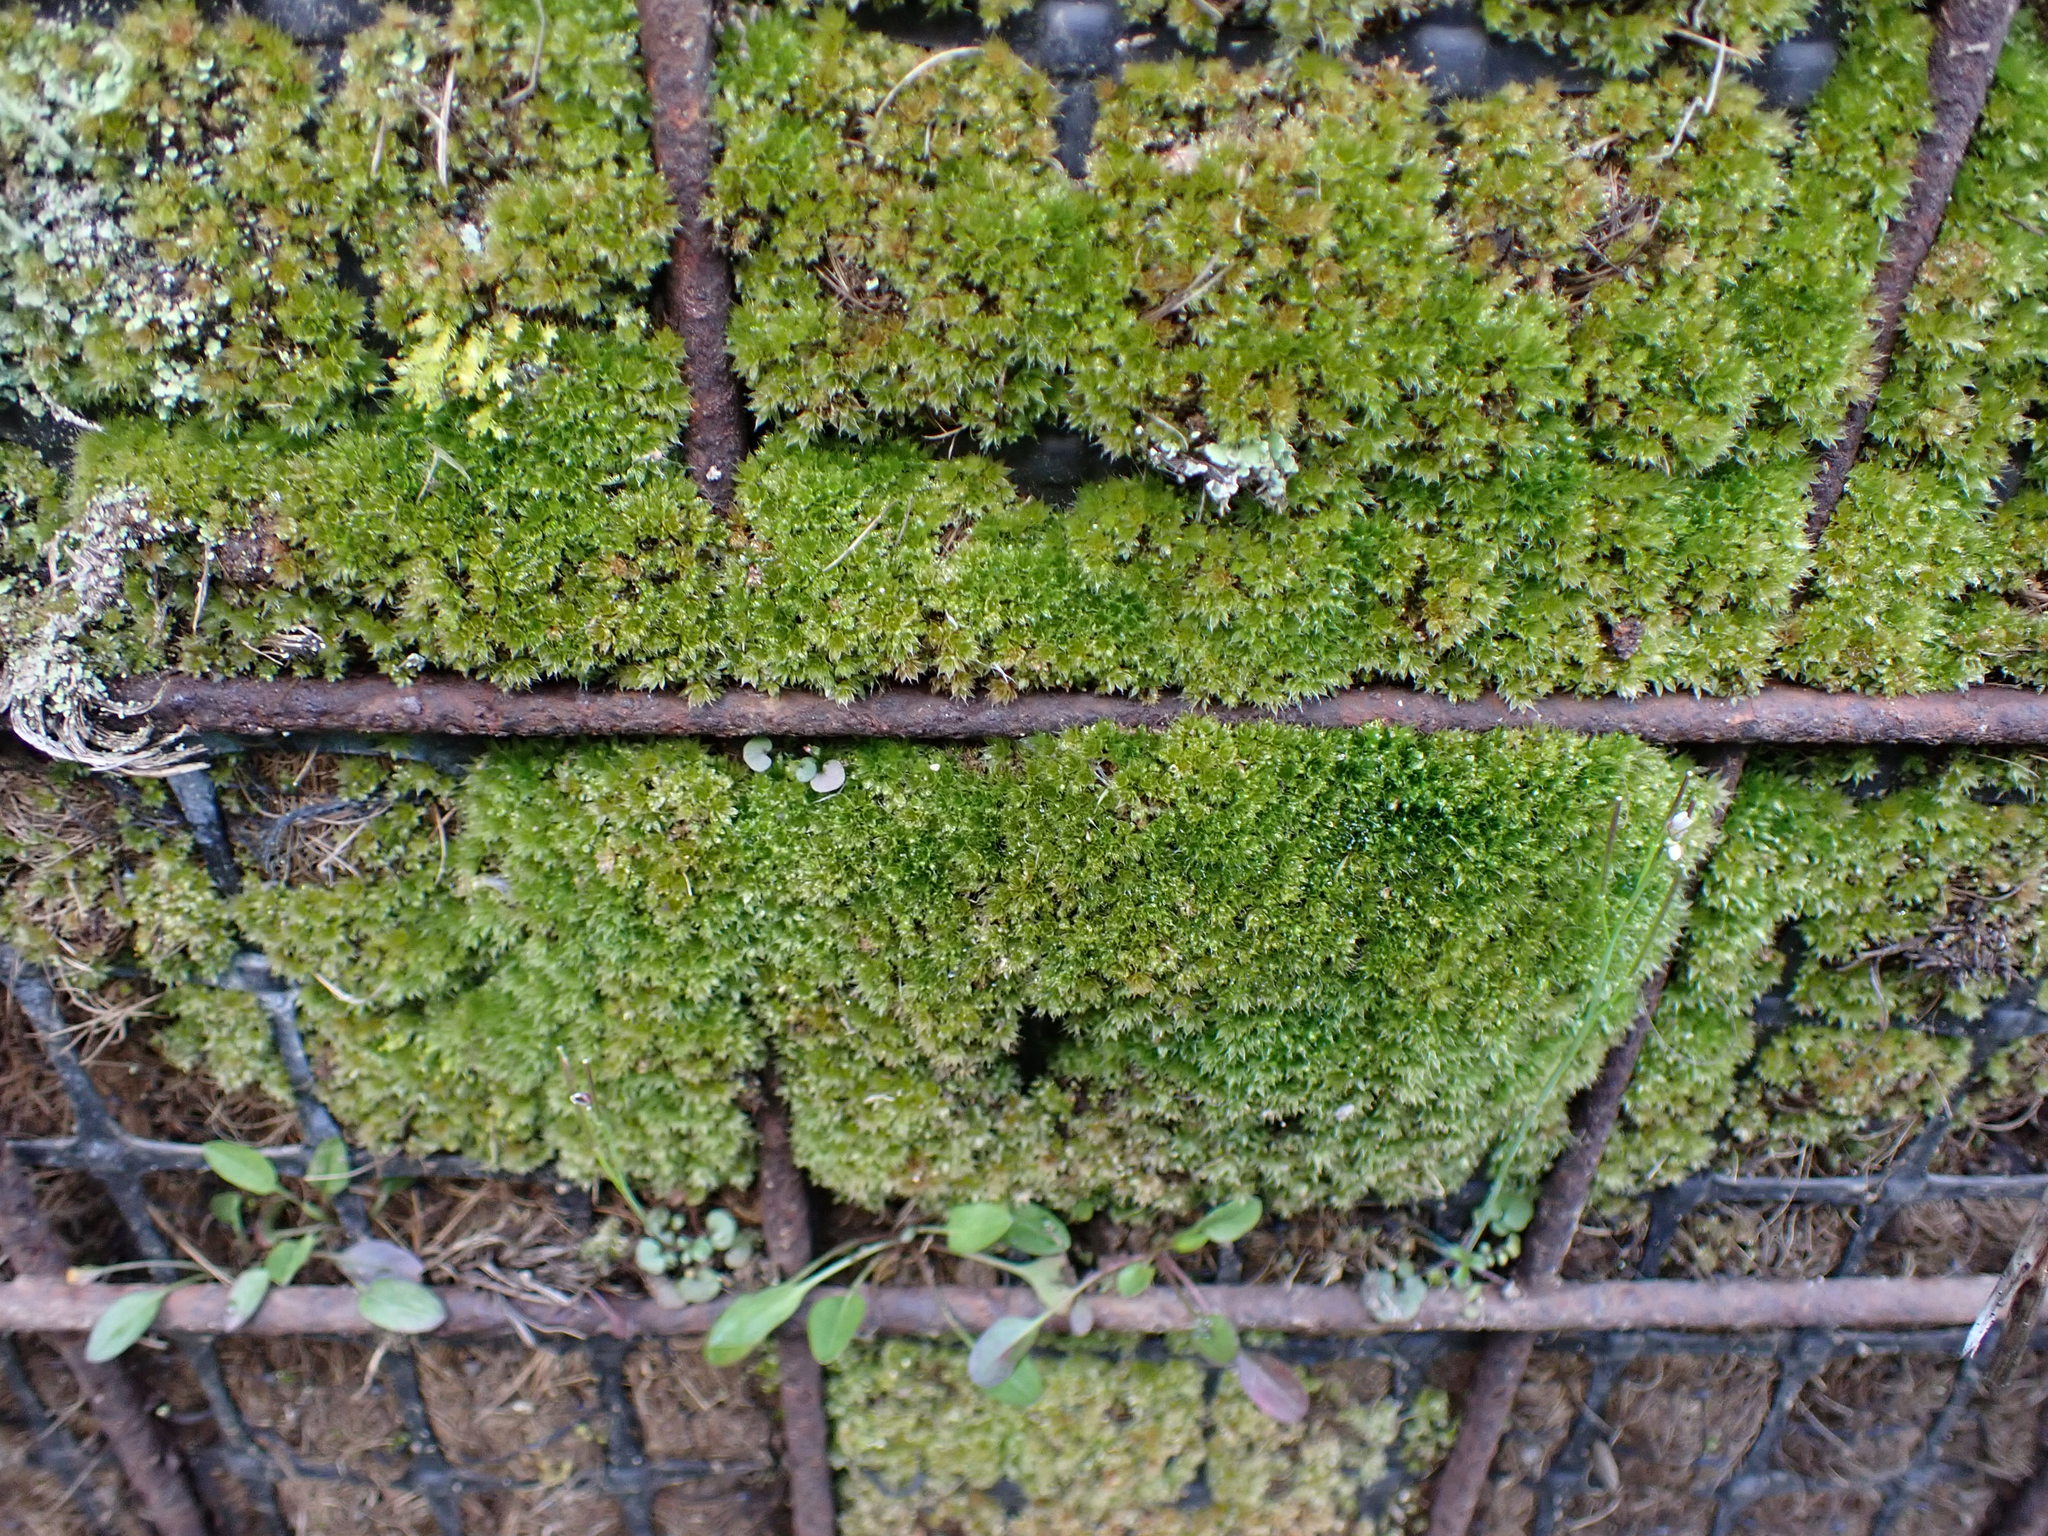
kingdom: Plantae
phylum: Bryophyta
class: Bryopsida
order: Bryales
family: Bryaceae
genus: Rosulabryum
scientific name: Rosulabryum capillare
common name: Capillary thread-moss
